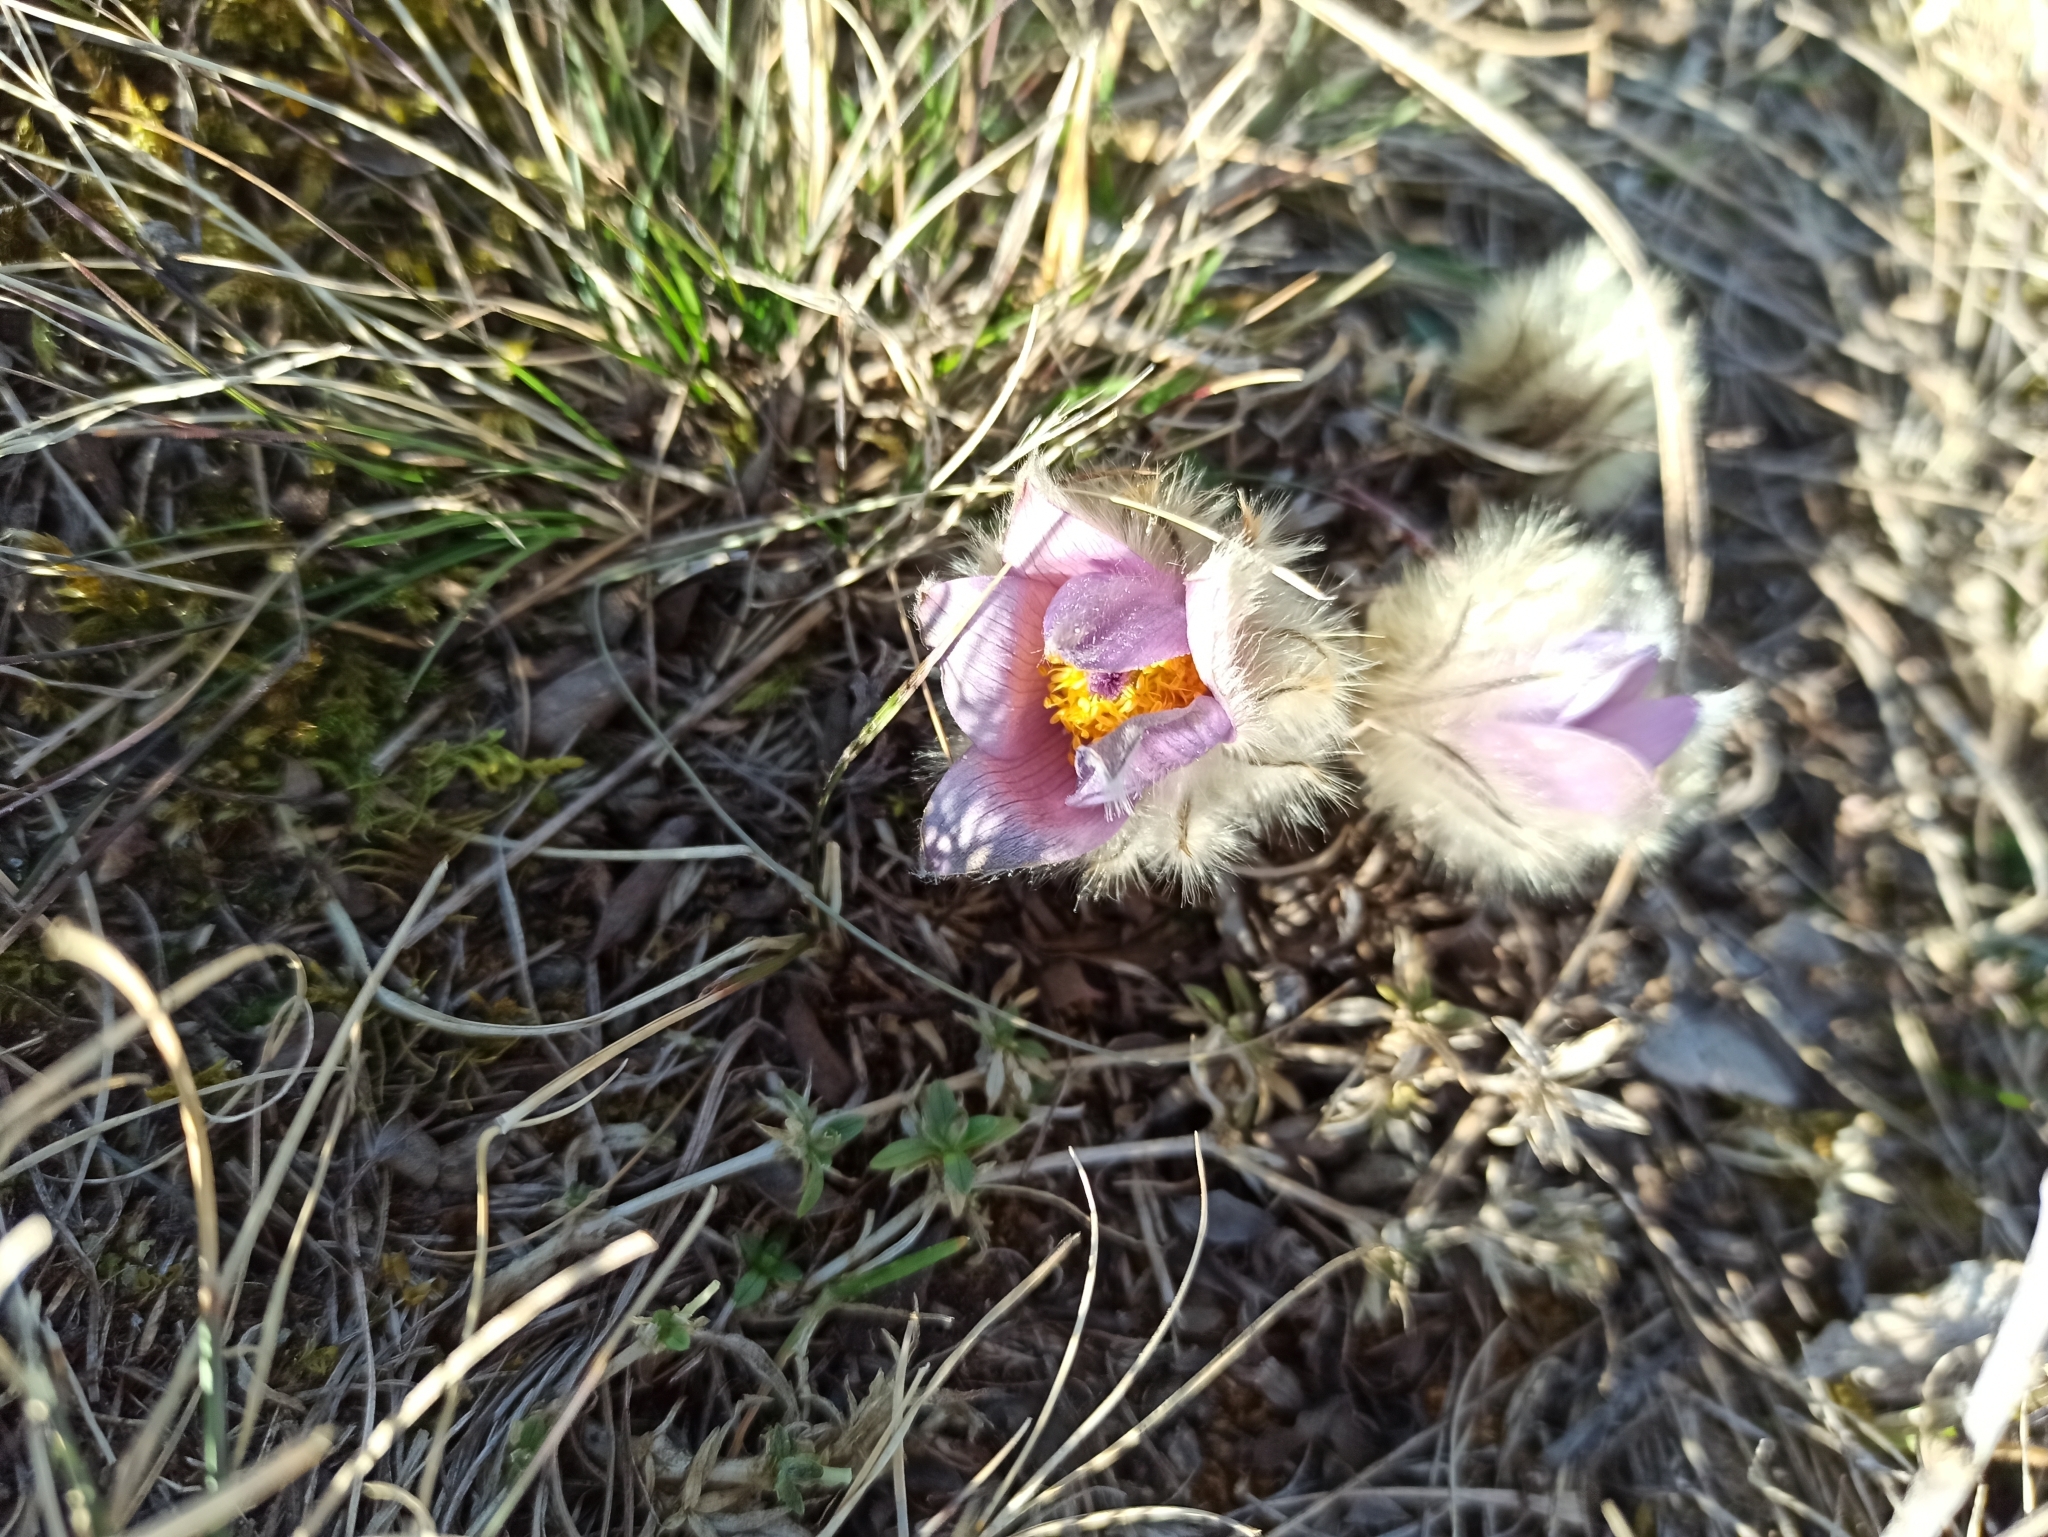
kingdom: Plantae
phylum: Tracheophyta
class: Magnoliopsida
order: Ranunculales
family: Ranunculaceae
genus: Pulsatilla
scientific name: Pulsatilla grandis
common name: Greater pasque flower
